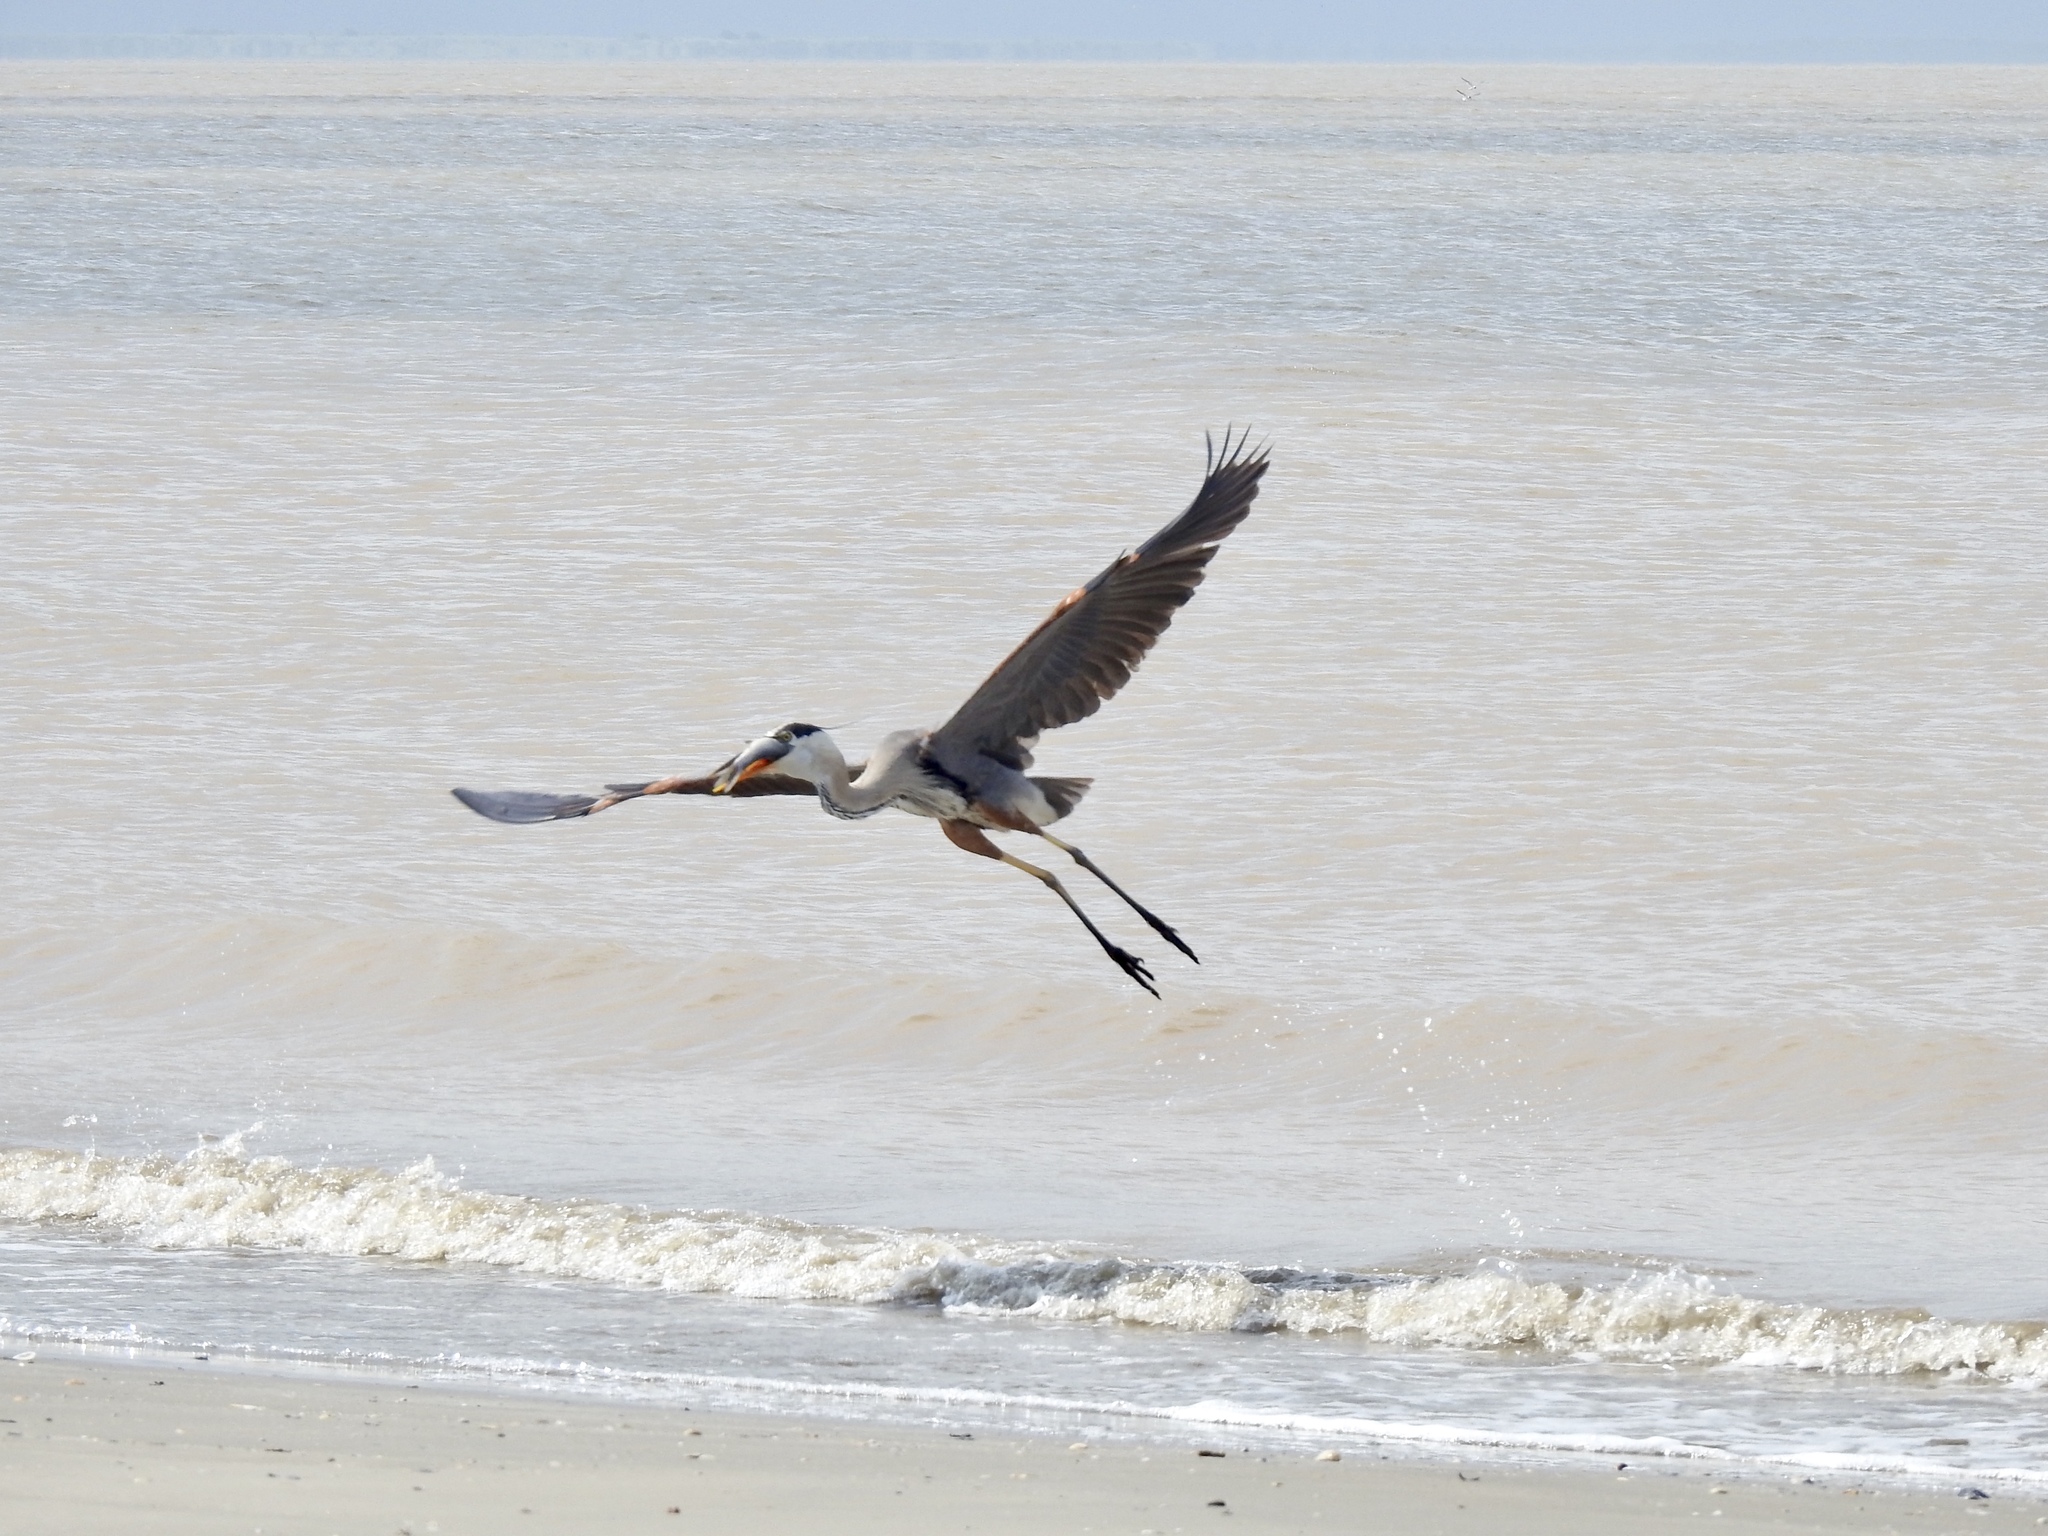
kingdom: Animalia
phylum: Chordata
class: Aves
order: Pelecaniformes
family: Ardeidae
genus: Ardea
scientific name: Ardea herodias
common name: Great blue heron
